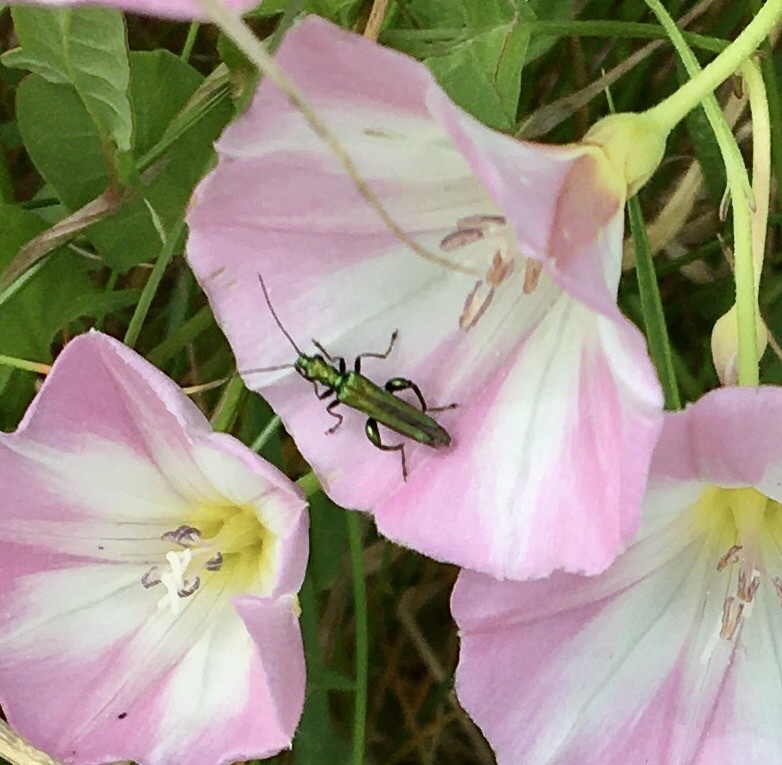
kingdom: Animalia
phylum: Arthropoda
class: Insecta
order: Coleoptera
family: Oedemeridae
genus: Oedemera
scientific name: Oedemera nobilis
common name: Swollen-thighed beetle
